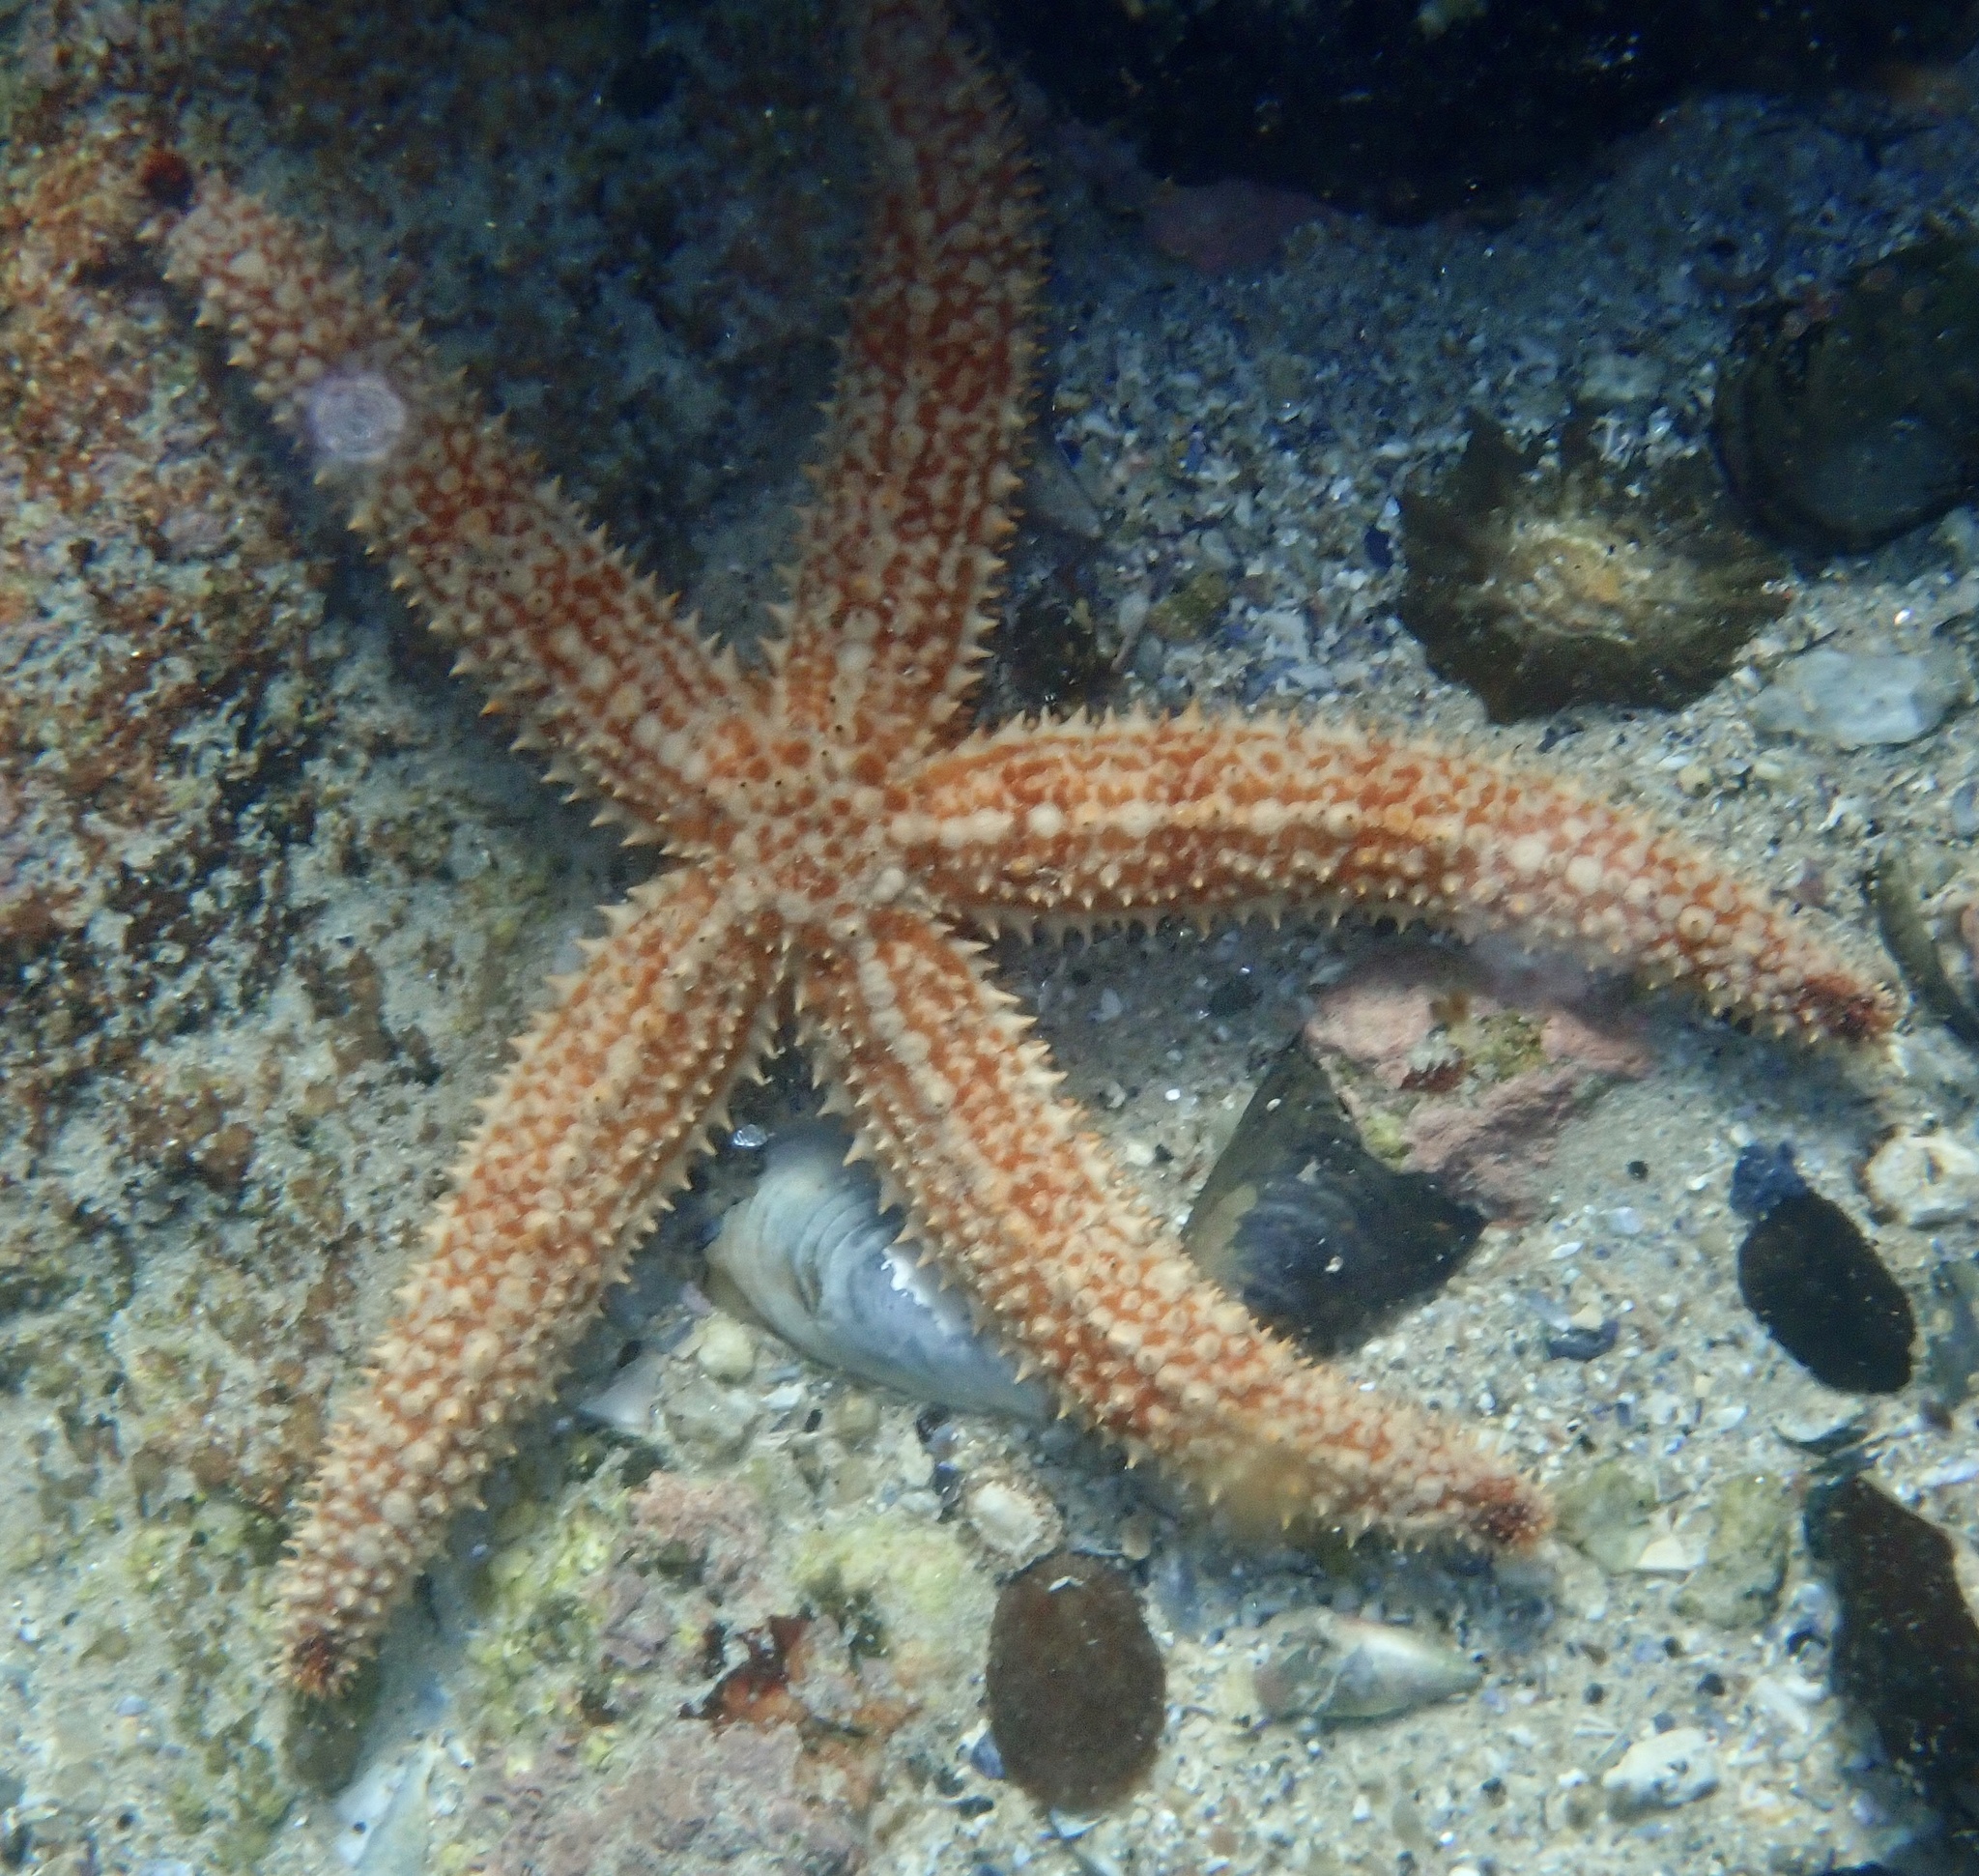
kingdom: Animalia
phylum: Echinodermata
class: Asteroidea
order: Forcipulatida
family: Asteriidae
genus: Marthasterias
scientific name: Marthasterias africana
